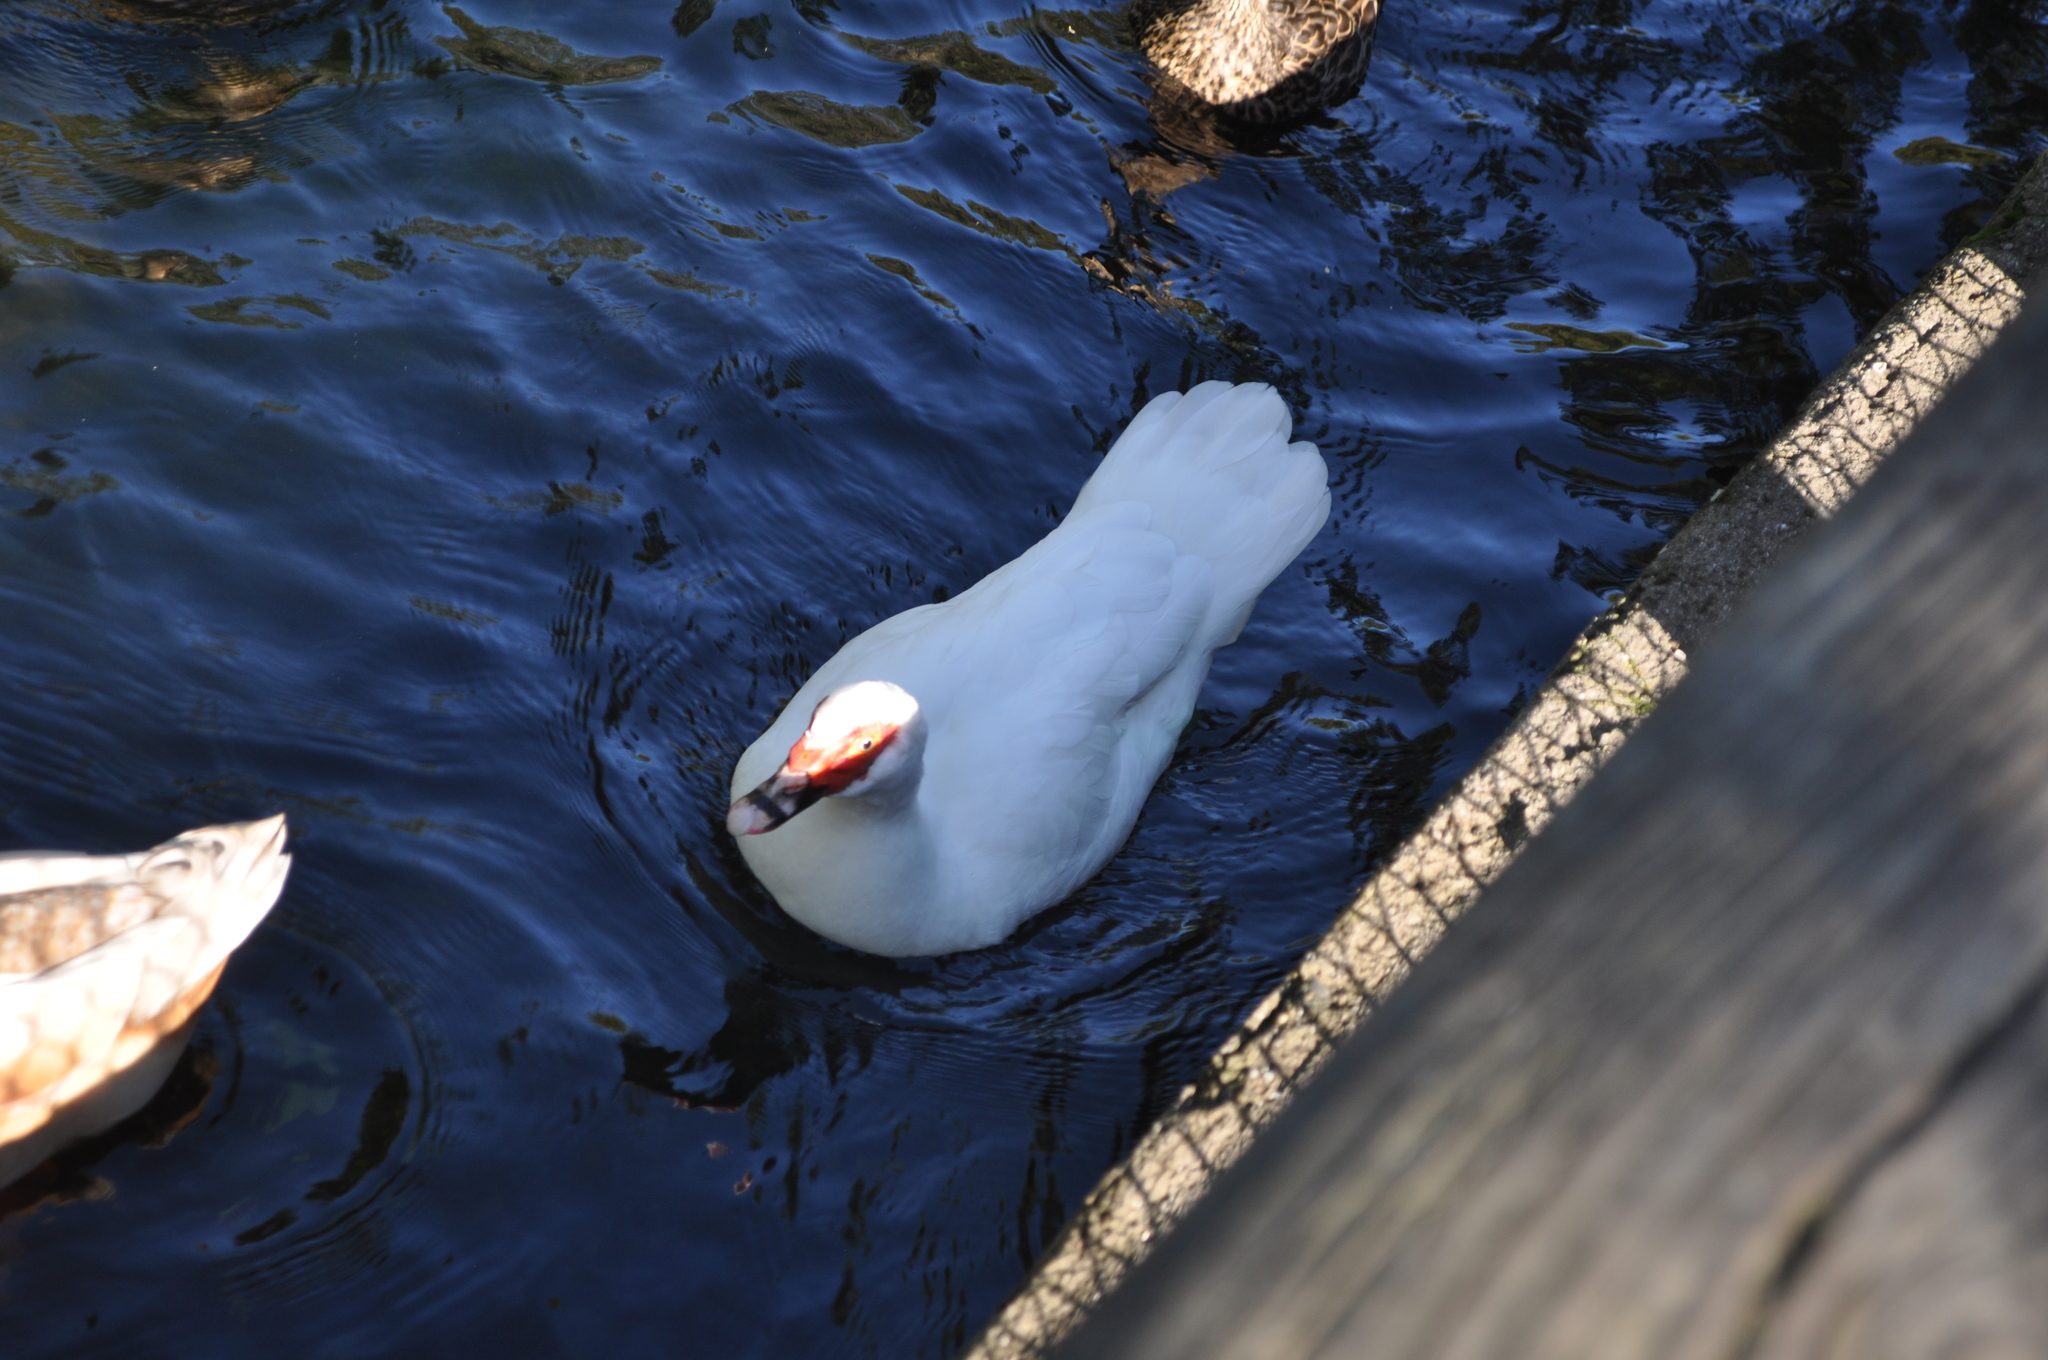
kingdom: Animalia
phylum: Chordata
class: Aves
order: Anseriformes
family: Anatidae
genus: Cairina
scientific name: Cairina moschata
